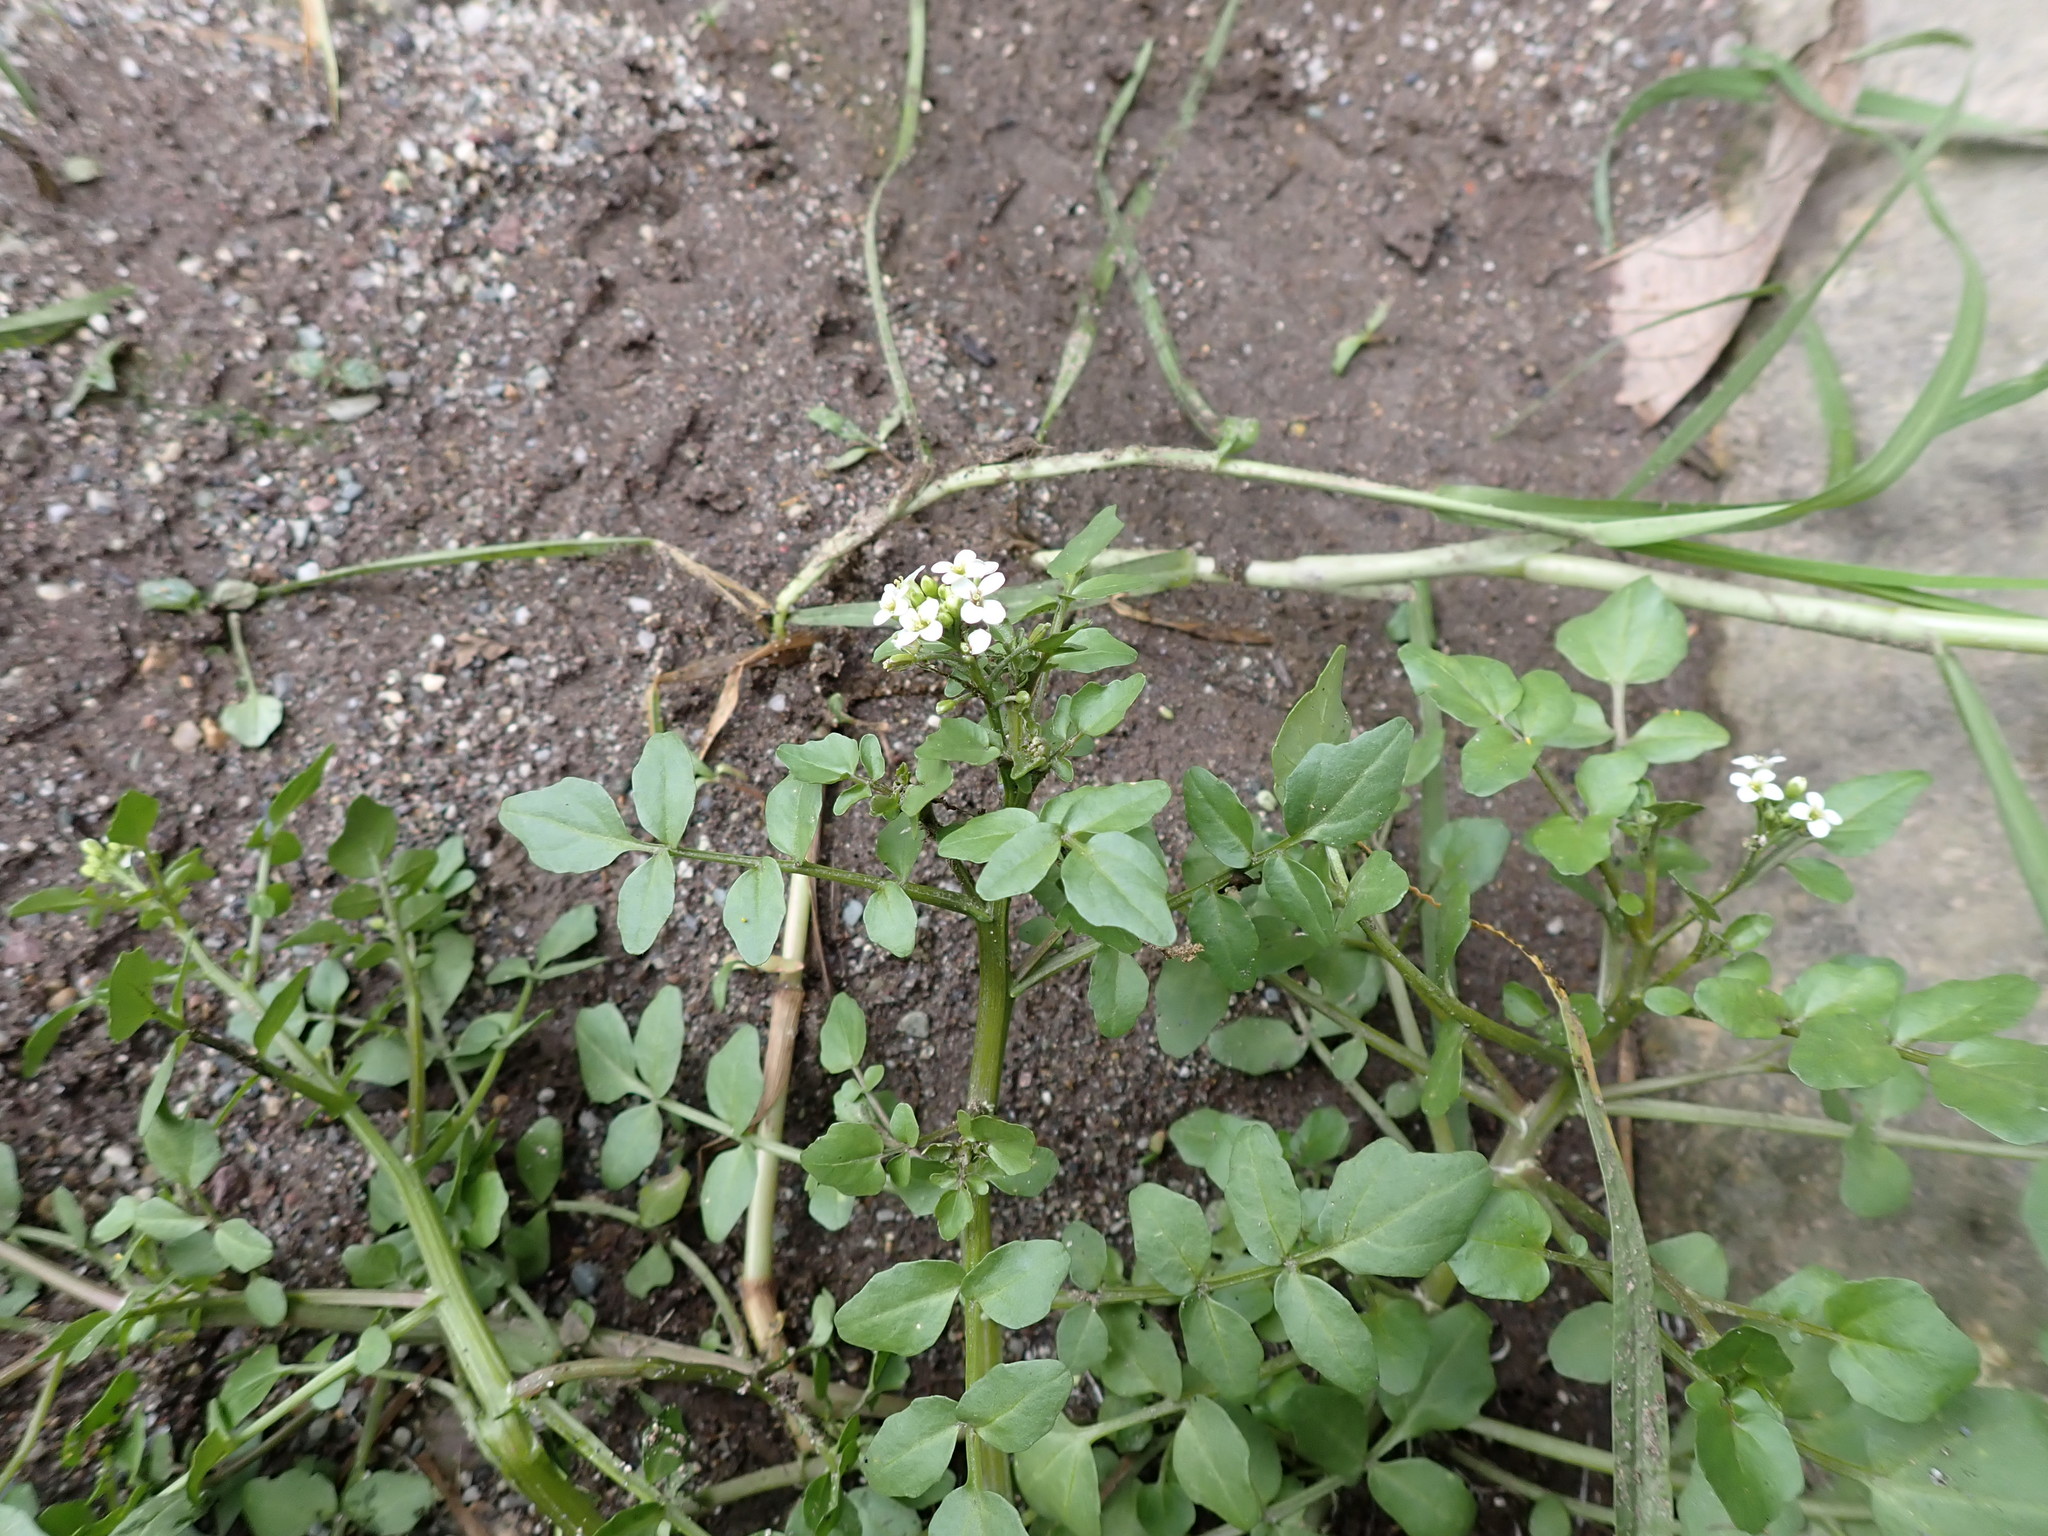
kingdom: Plantae
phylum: Tracheophyta
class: Magnoliopsida
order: Brassicales
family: Brassicaceae
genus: Nasturtium
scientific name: Nasturtium officinale
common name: Watercress
